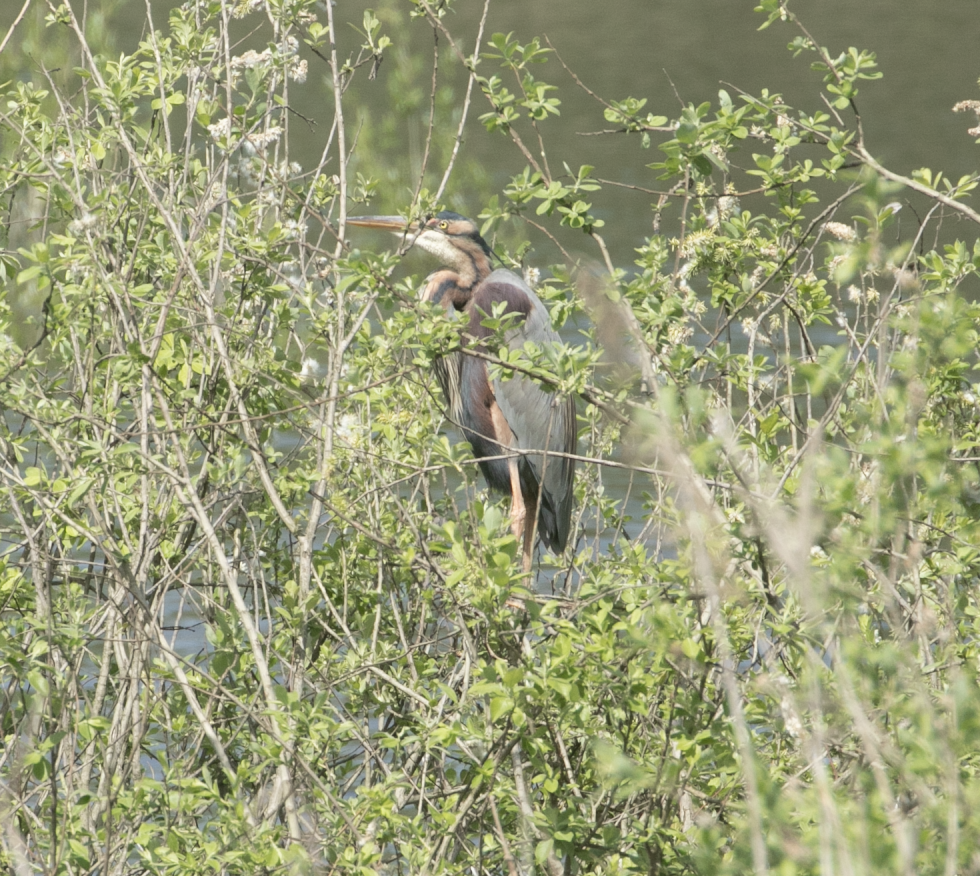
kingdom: Animalia
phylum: Chordata
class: Aves
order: Pelecaniformes
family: Ardeidae
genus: Ardea
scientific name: Ardea purpurea
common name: Purple heron
